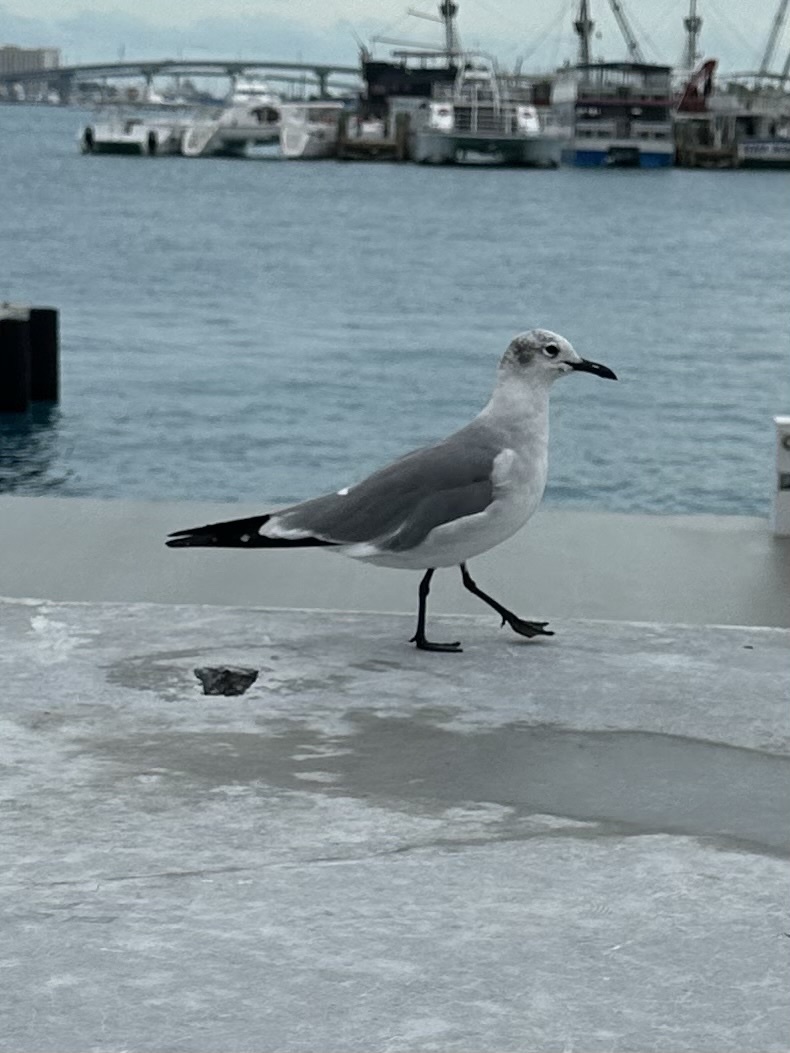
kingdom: Animalia
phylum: Chordata
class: Aves
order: Charadriiformes
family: Laridae
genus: Leucophaeus
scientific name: Leucophaeus atricilla
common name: Laughing gull
